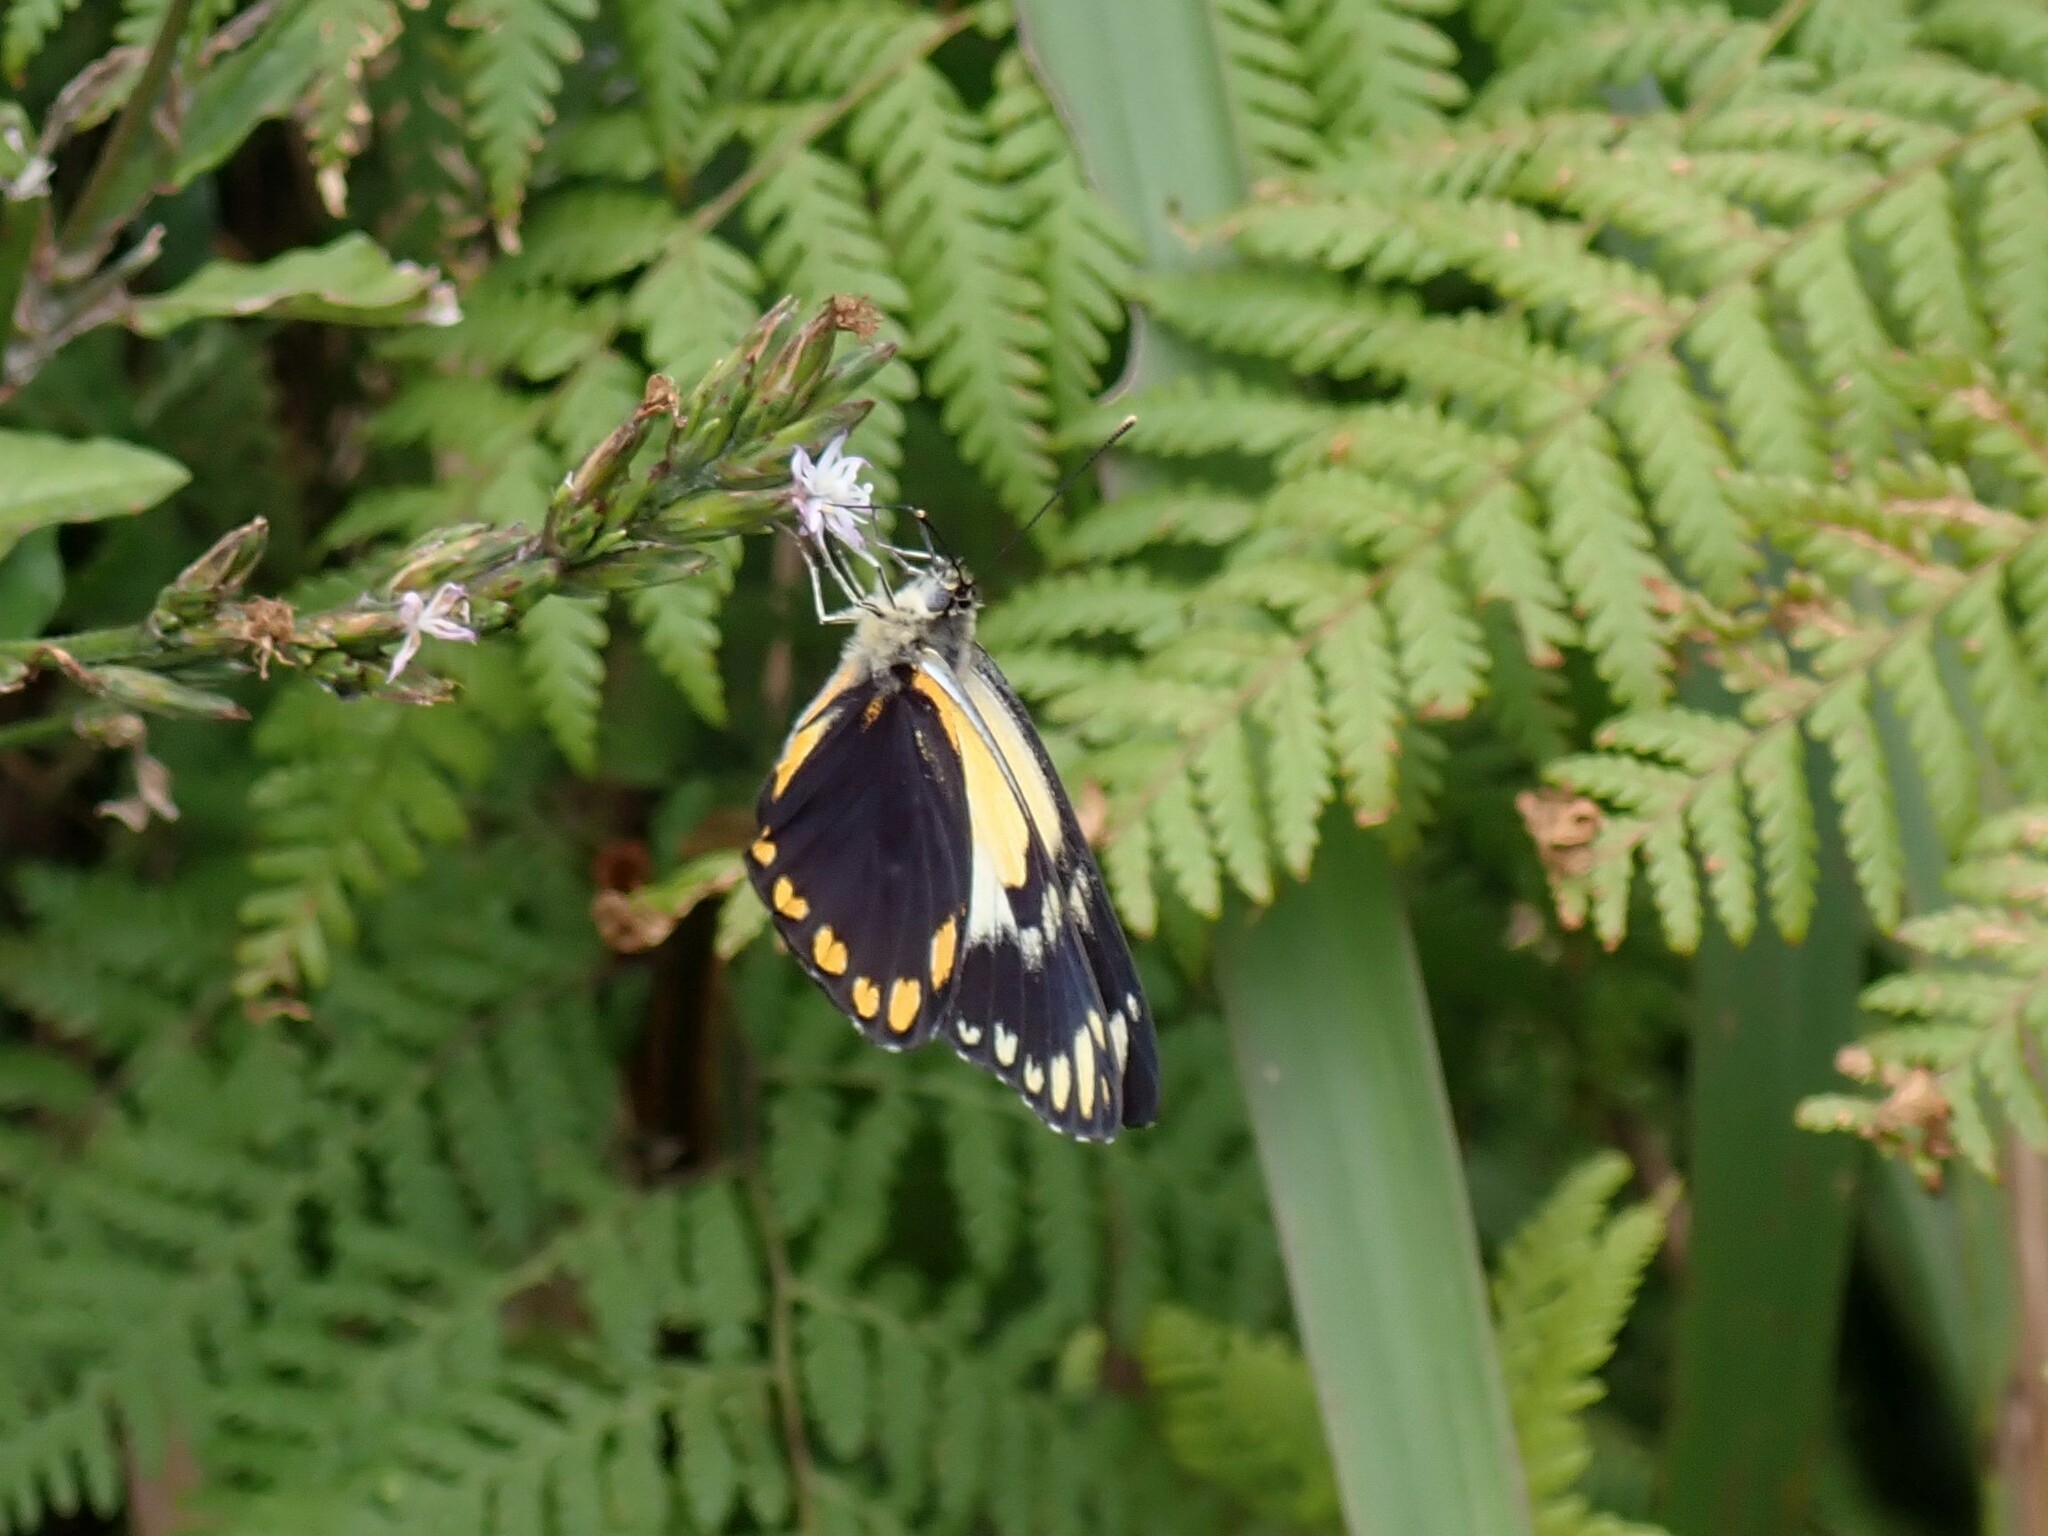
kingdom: Animalia
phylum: Arthropoda
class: Insecta
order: Lepidoptera
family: Pieridae
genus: Belenois
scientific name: Belenois java
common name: Caper white
